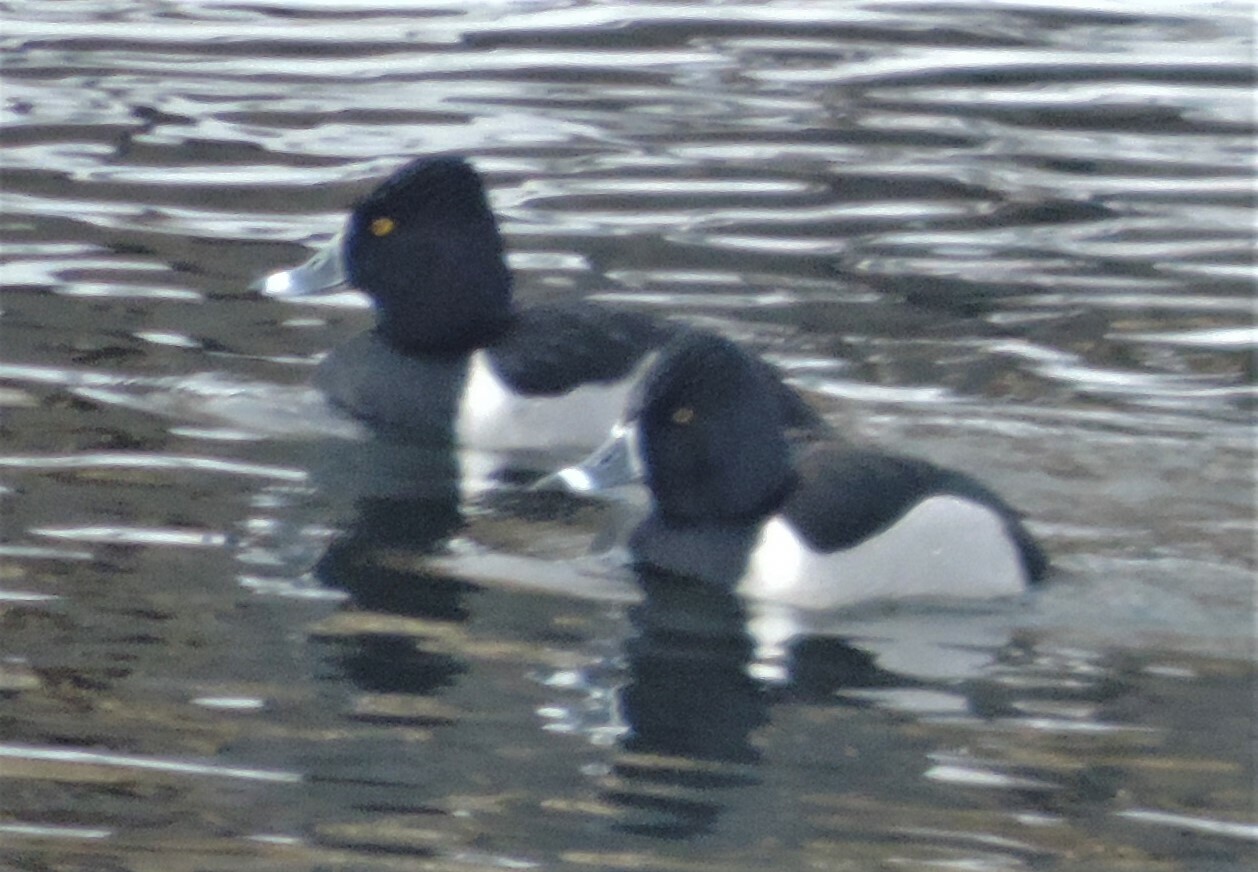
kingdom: Animalia
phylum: Chordata
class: Aves
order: Anseriformes
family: Anatidae
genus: Aythya
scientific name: Aythya collaris
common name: Ring-necked duck
